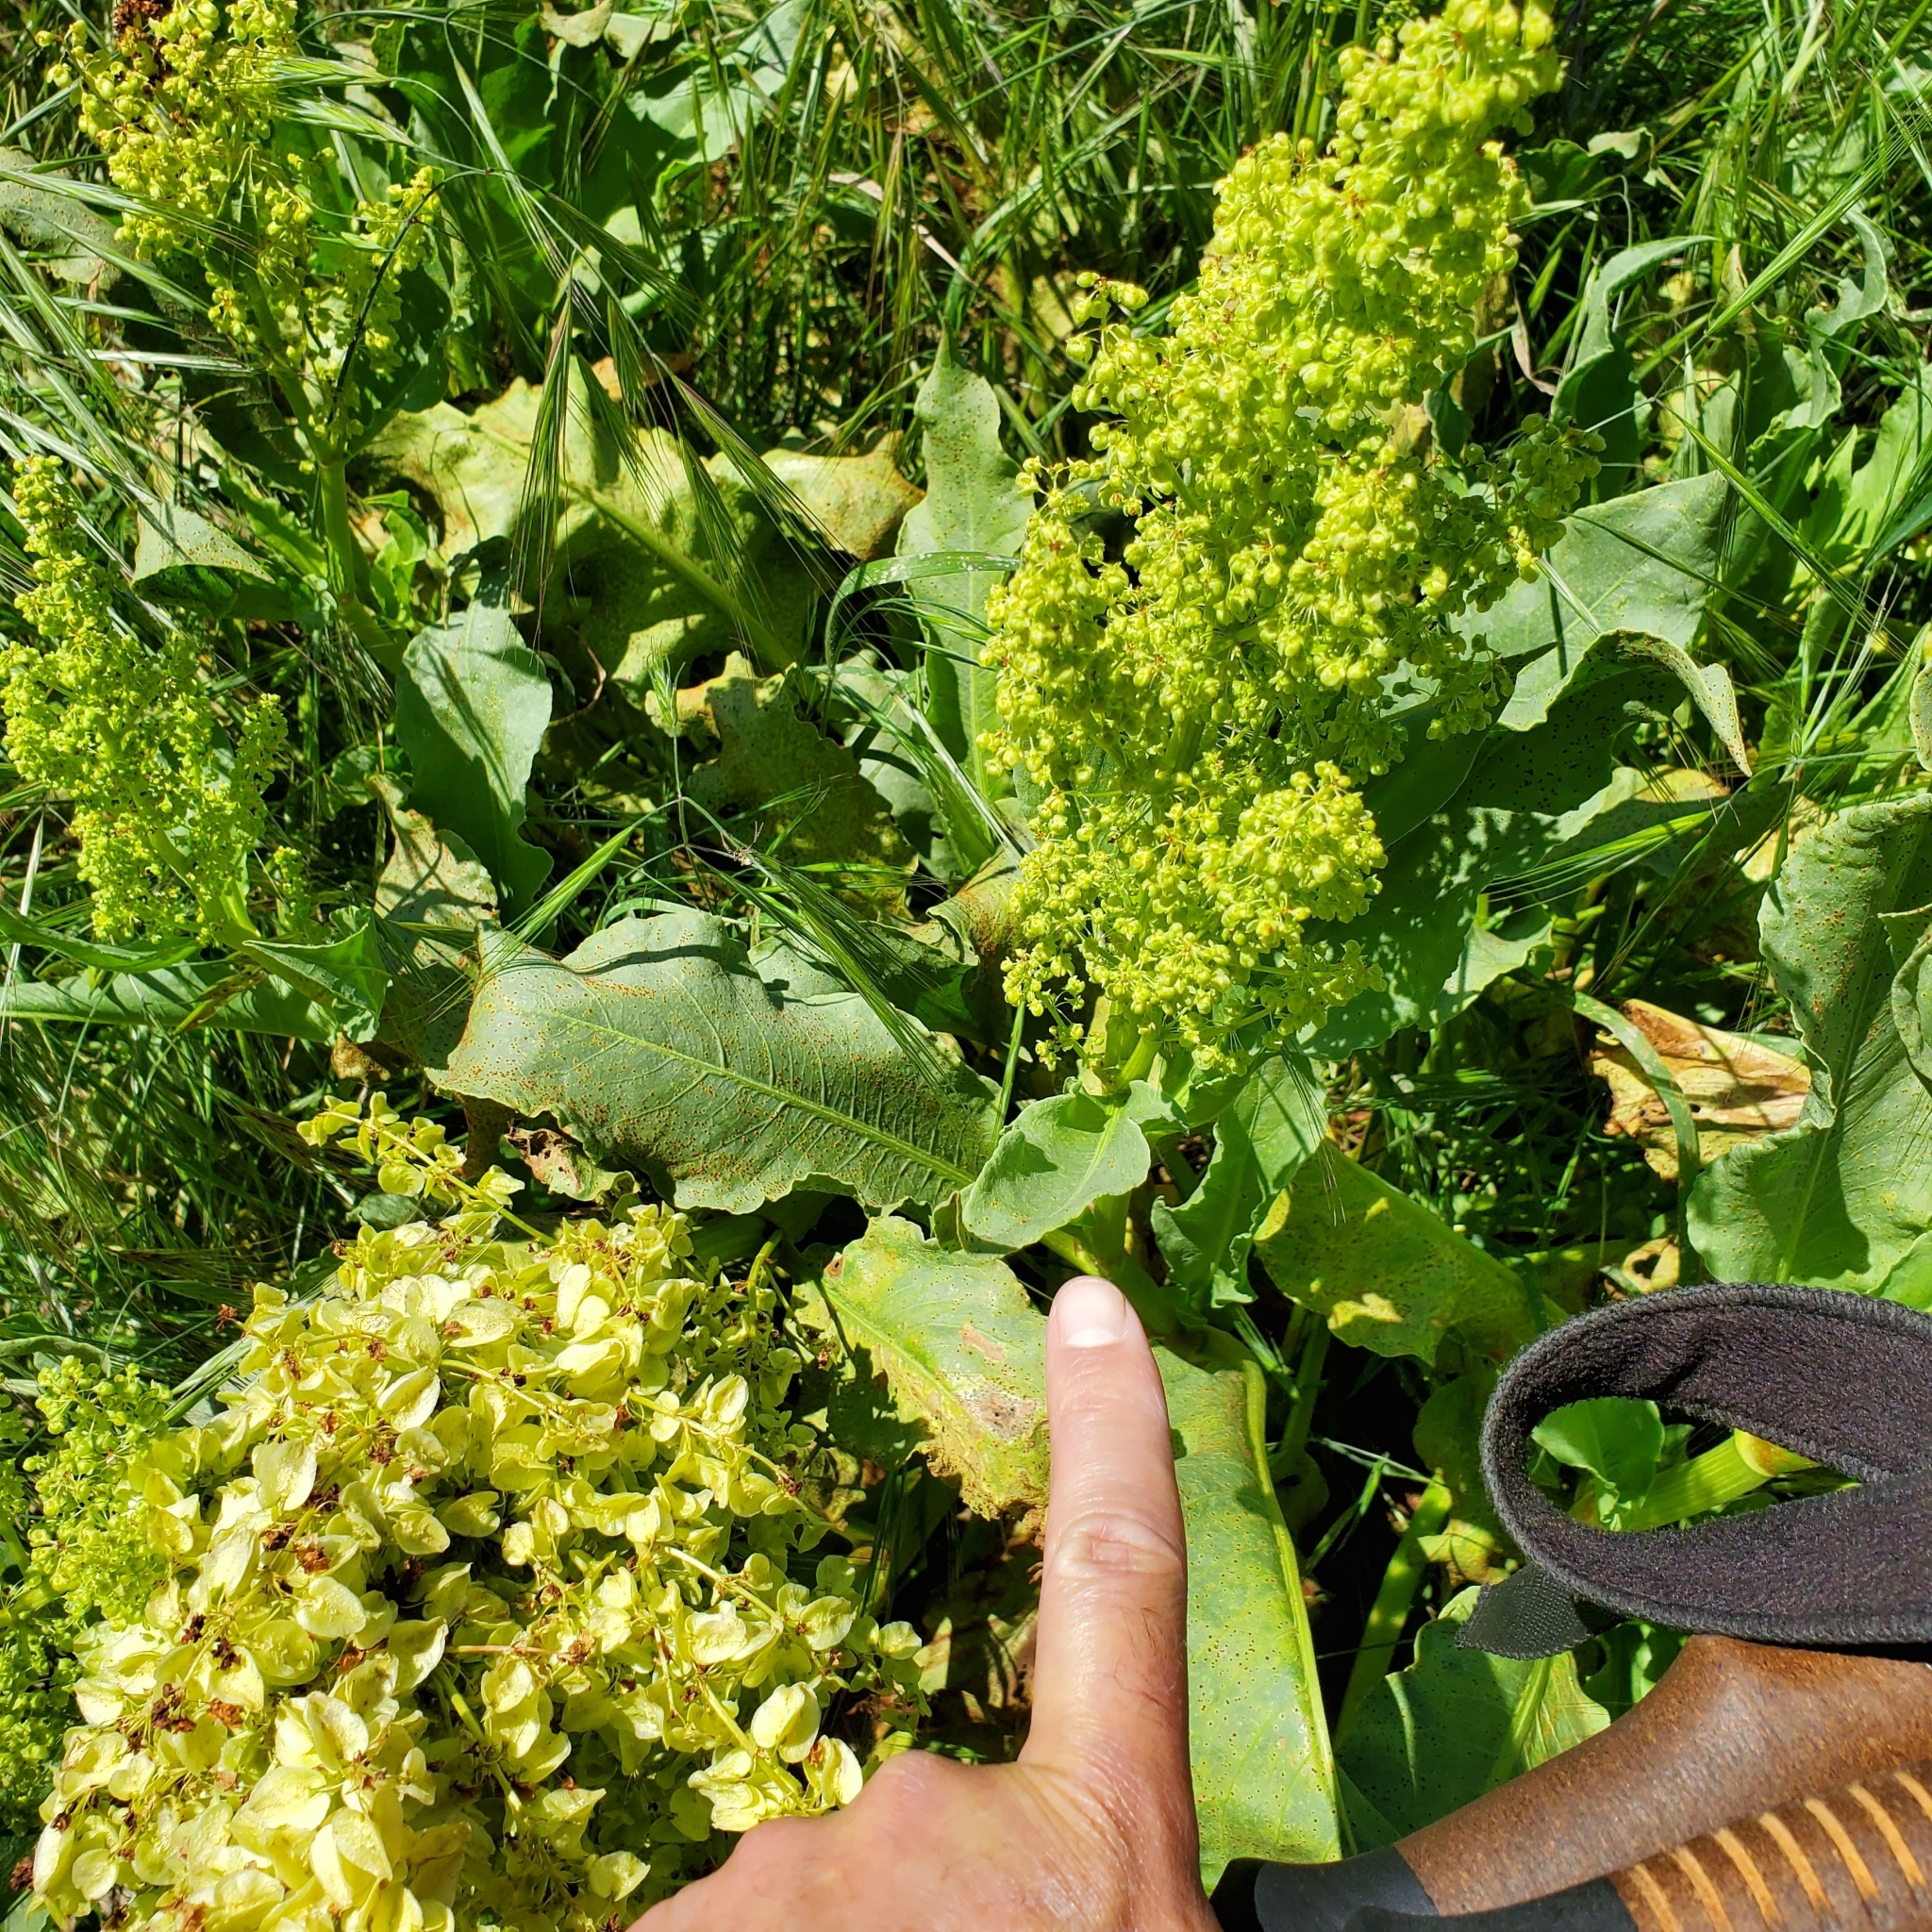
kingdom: Plantae
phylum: Tracheophyta
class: Magnoliopsida
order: Caryophyllales
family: Polygonaceae
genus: Rumex
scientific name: Rumex hymenosepalus
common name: Ganagra
